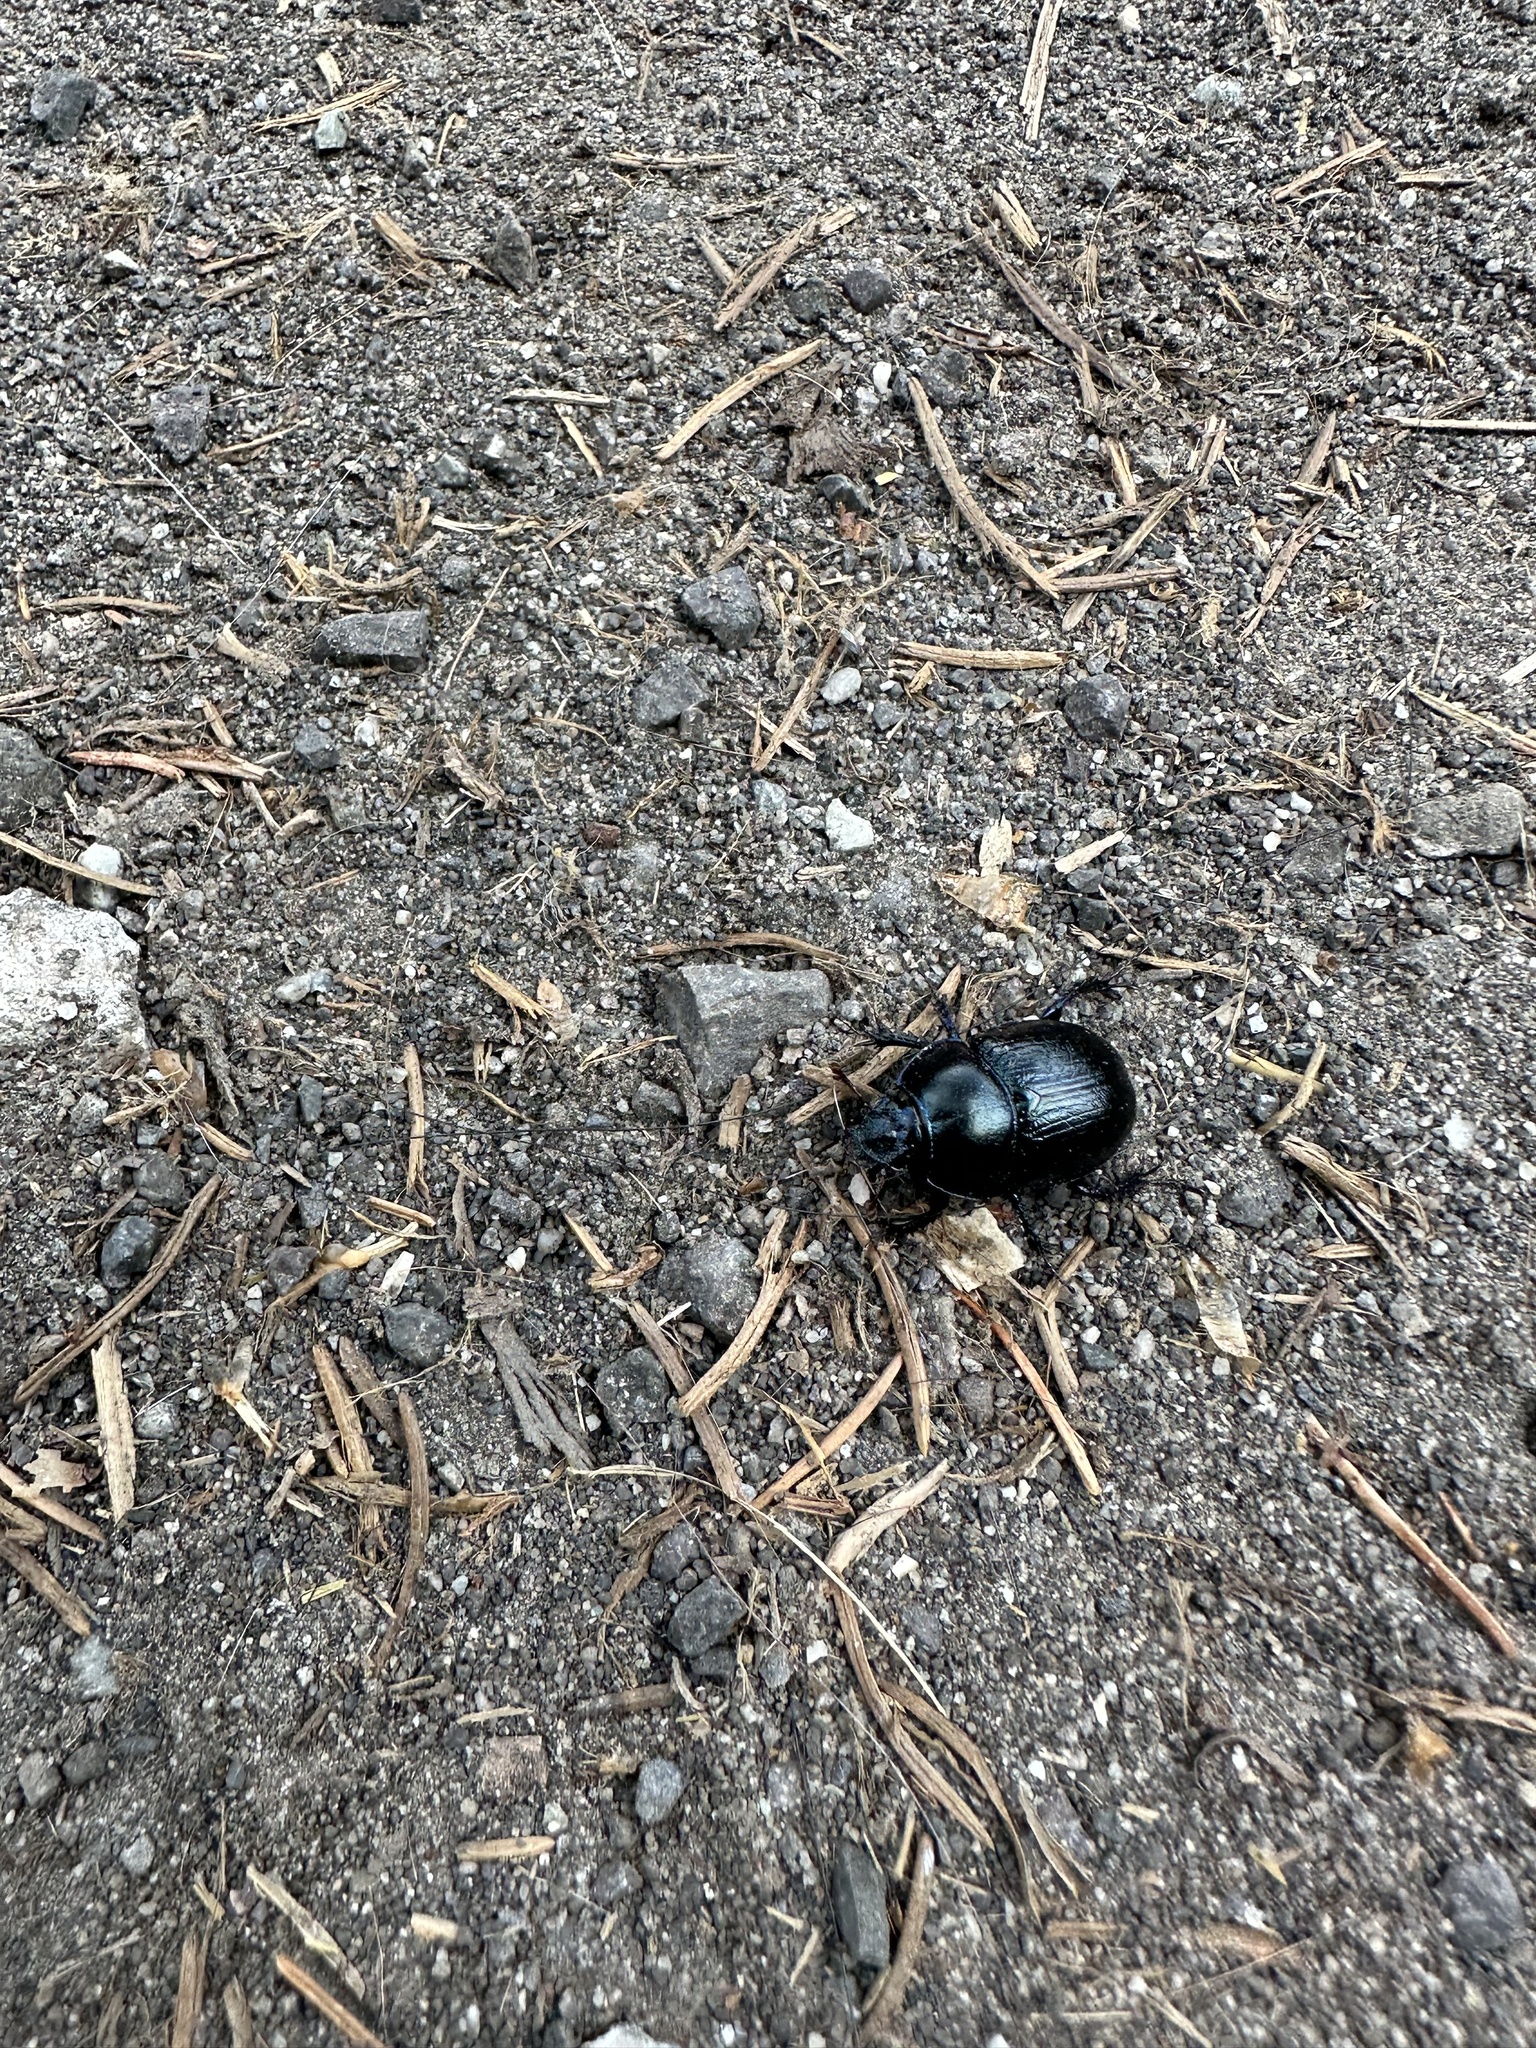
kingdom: Animalia
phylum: Arthropoda
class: Insecta
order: Coleoptera
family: Geotrupidae
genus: Anoplotrupes
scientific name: Anoplotrupes stercorosus
